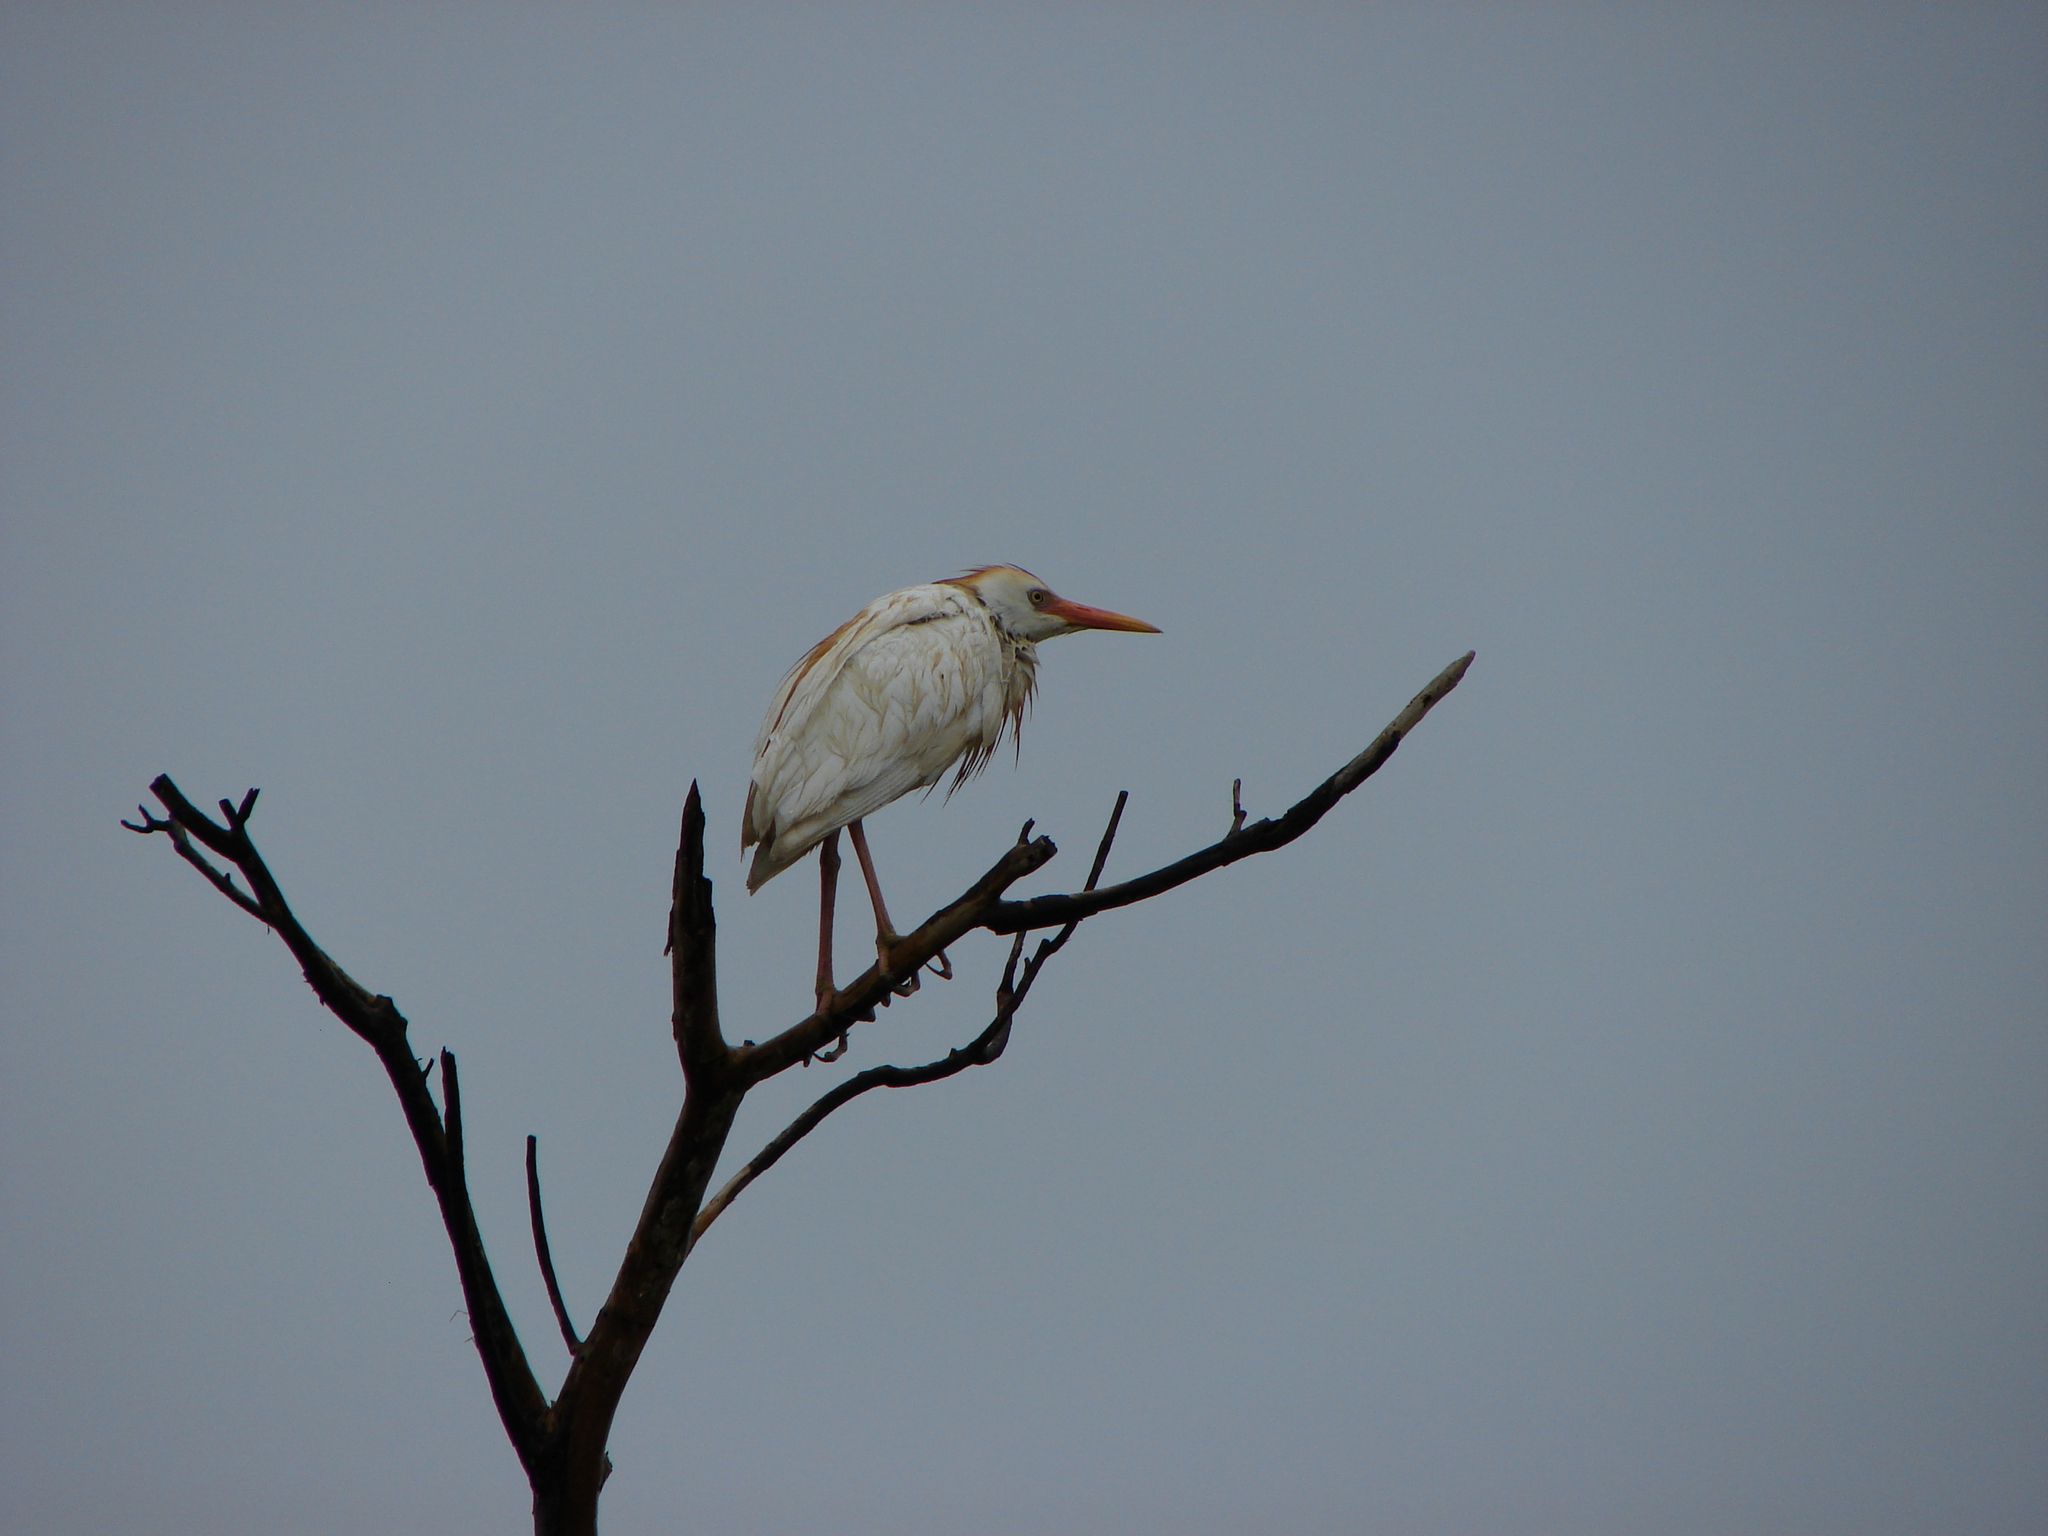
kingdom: Animalia
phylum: Chordata
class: Aves
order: Pelecaniformes
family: Ardeidae
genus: Bubulcus
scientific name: Bubulcus ibis
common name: Cattle egret
